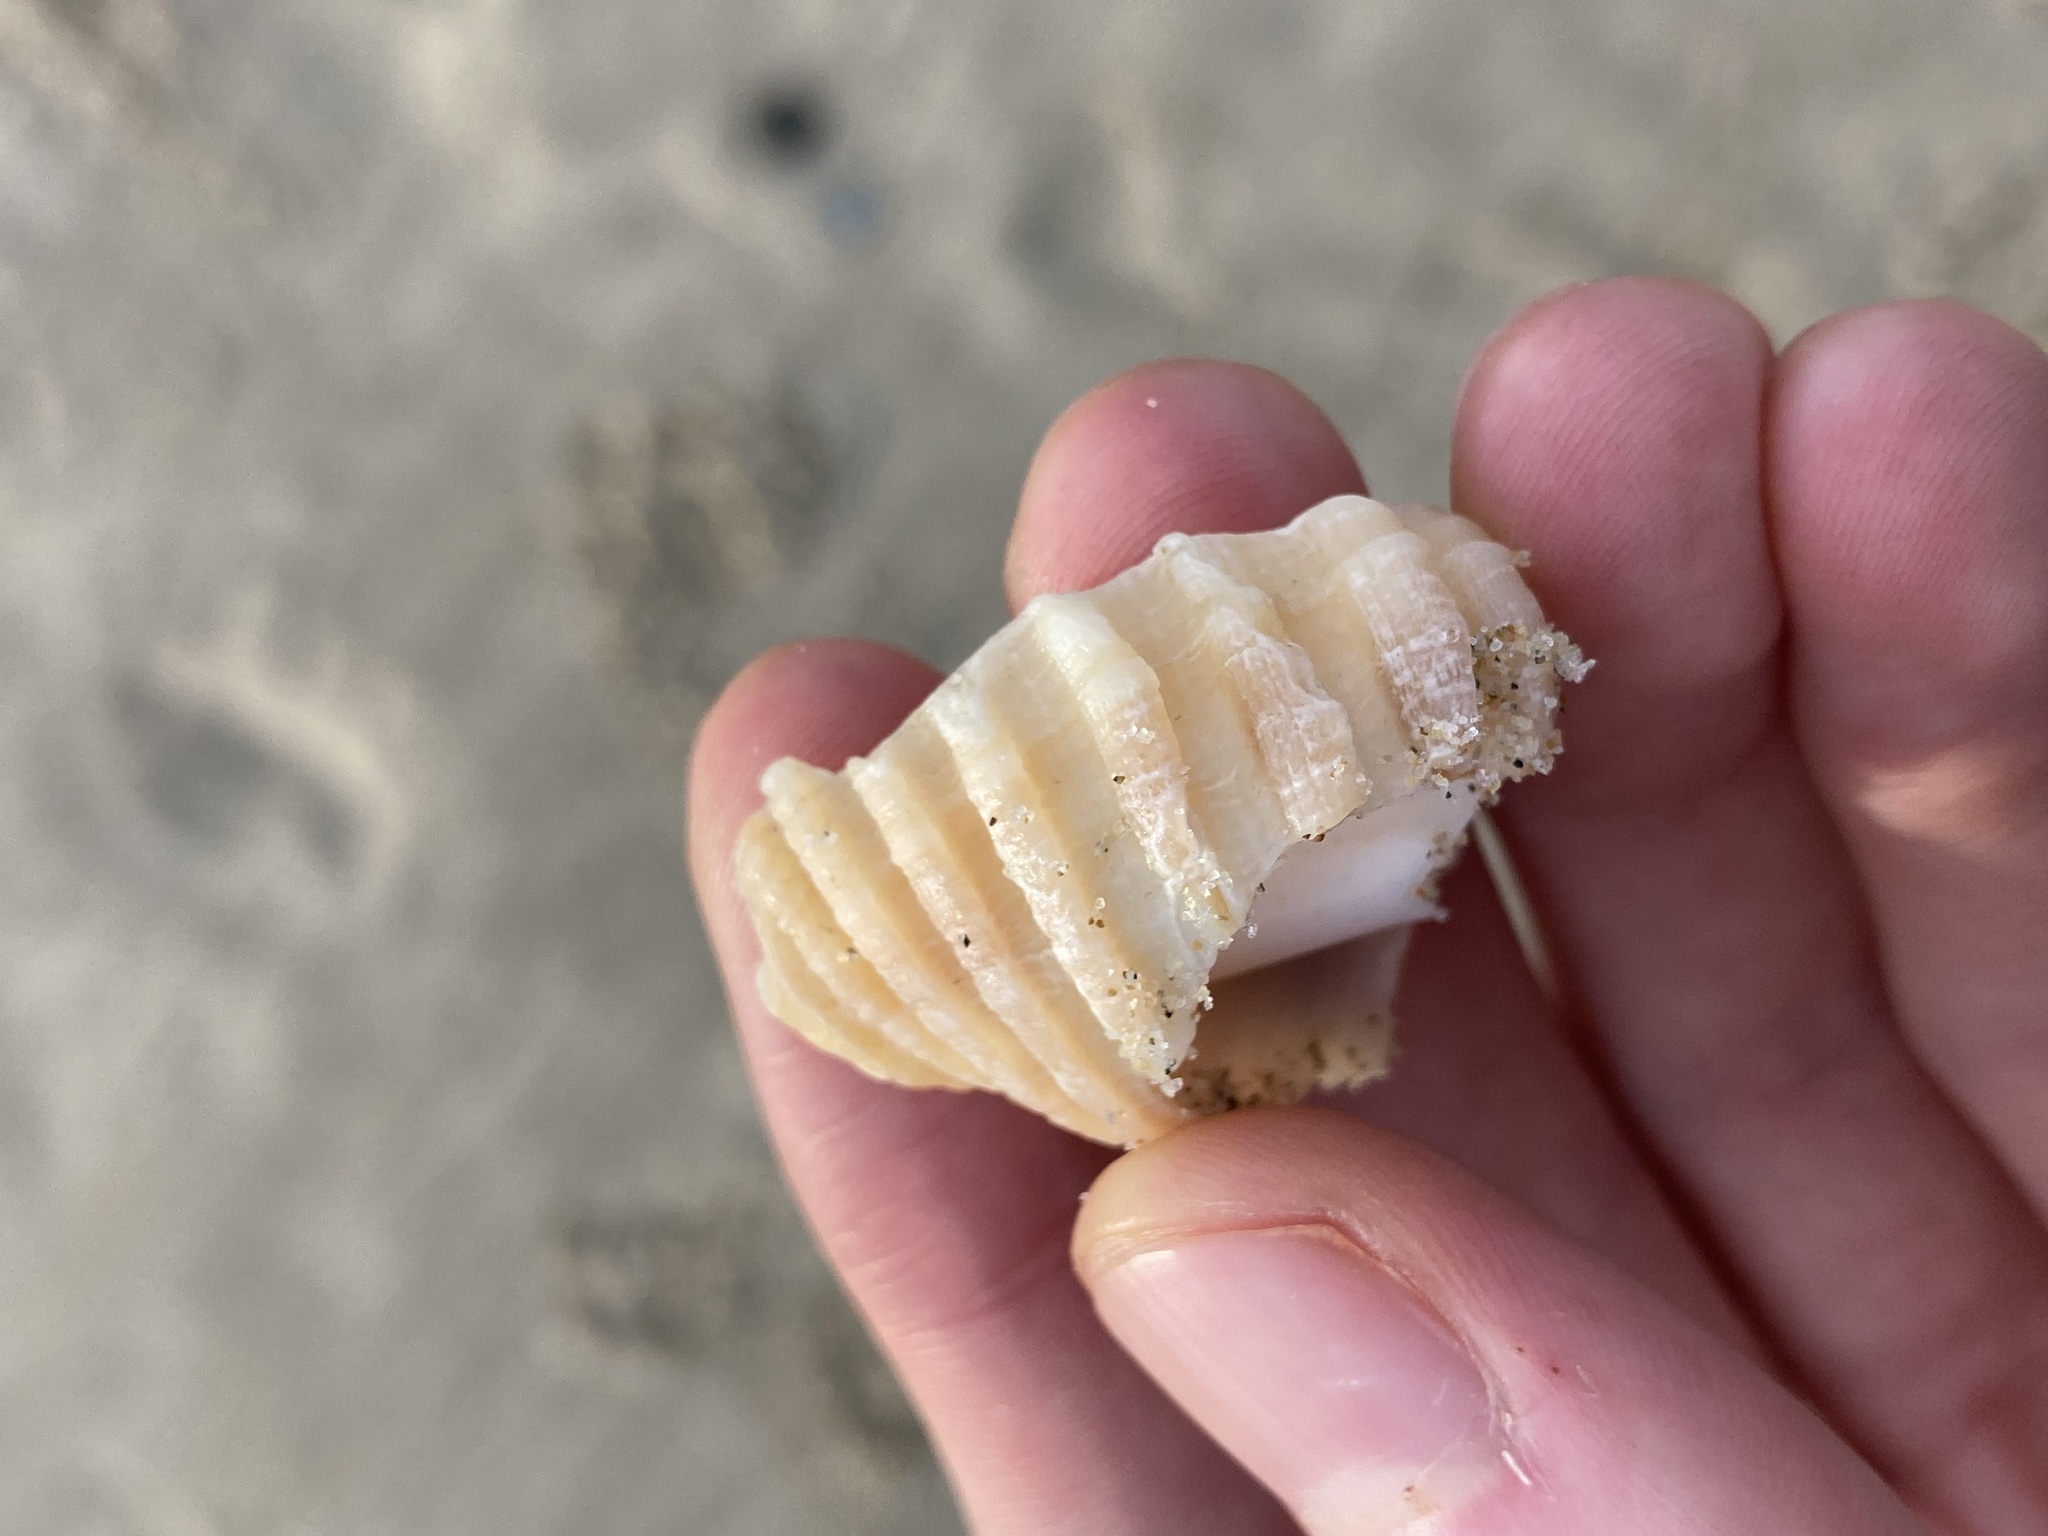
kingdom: Animalia
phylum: Mollusca
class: Gastropoda
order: Neogastropoda
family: Muricidae
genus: Dicathais
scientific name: Dicathais orbita
